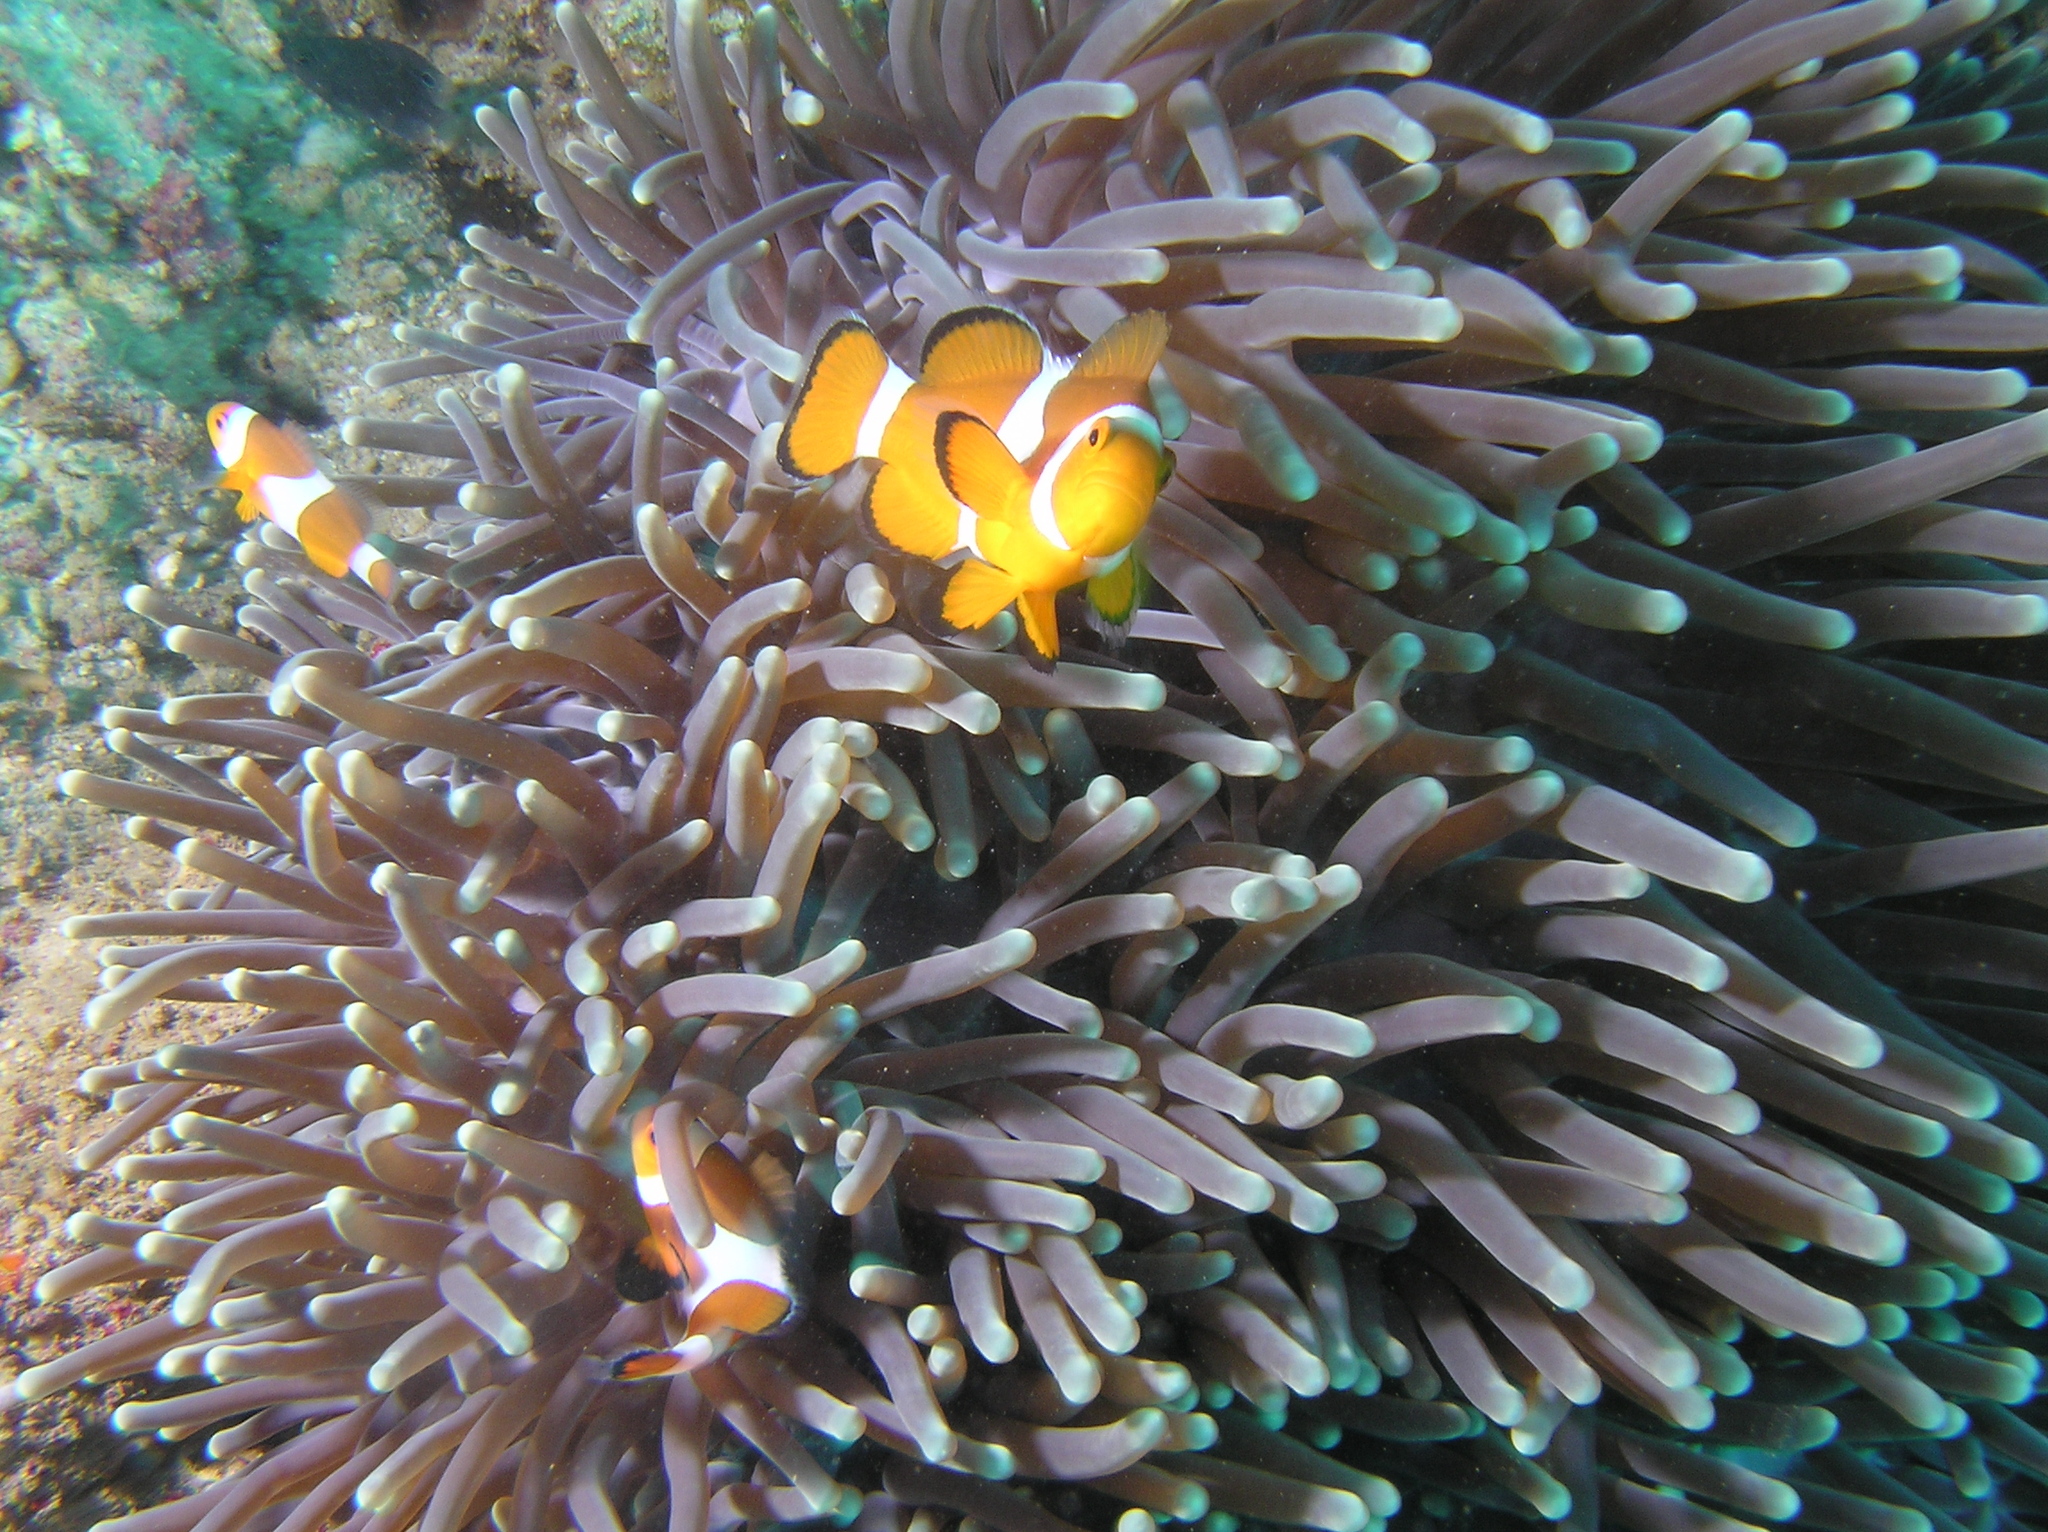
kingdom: Animalia
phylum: Chordata
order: Perciformes
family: Pomacentridae
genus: Amphiprion
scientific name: Amphiprion ocellaris
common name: Clown anemonefish
